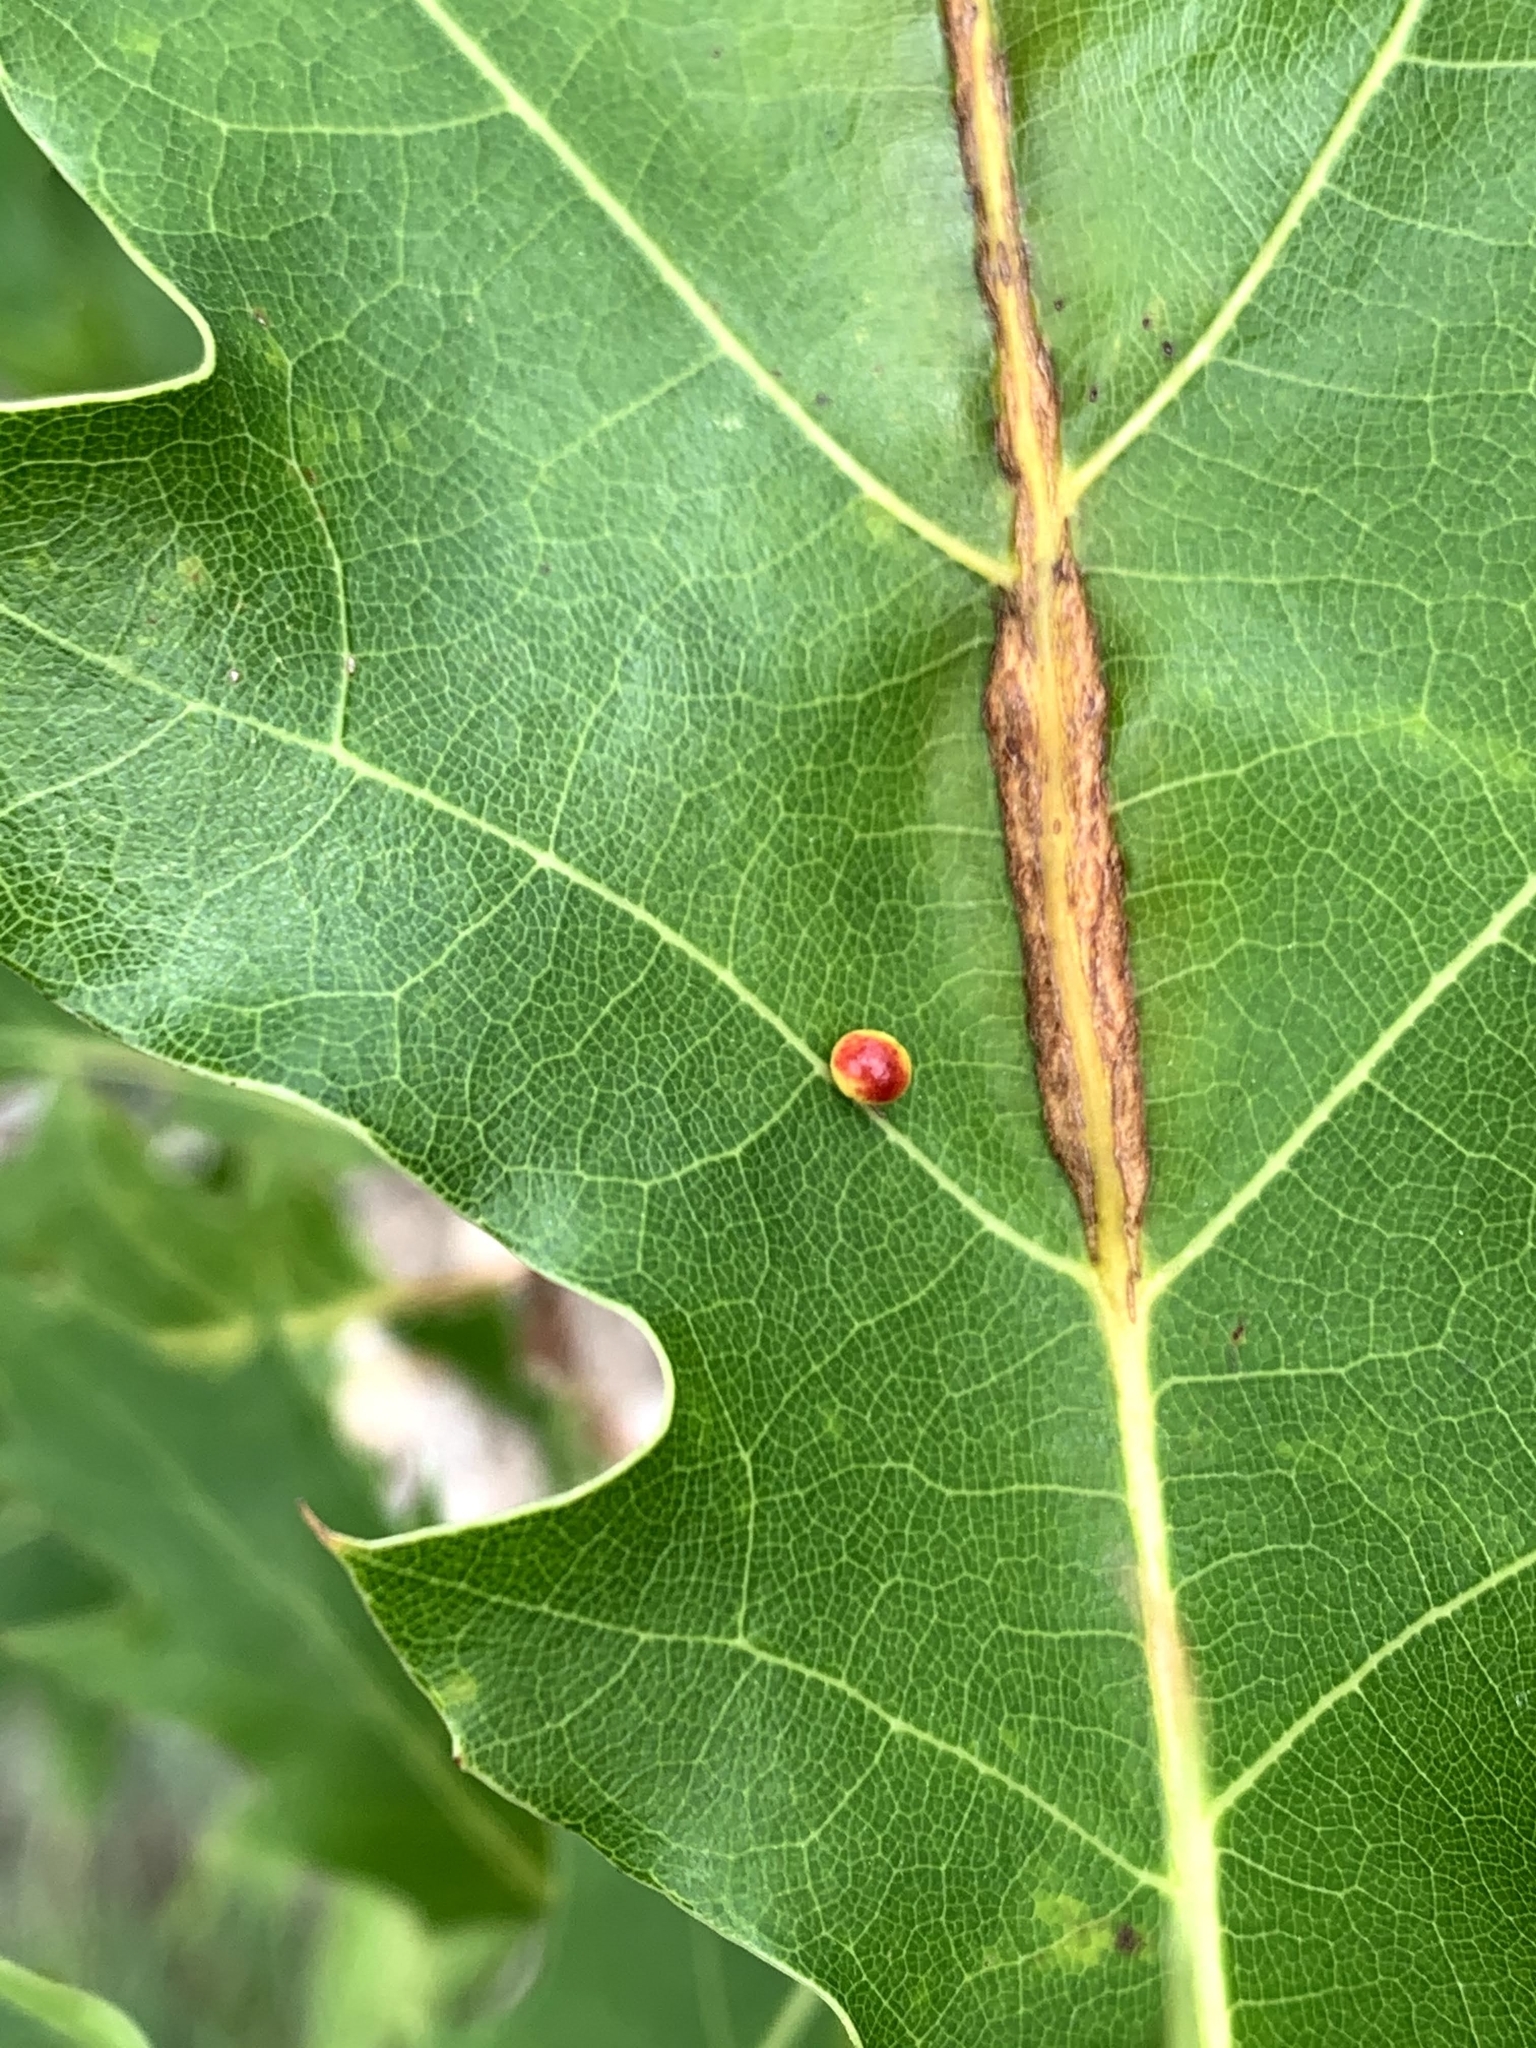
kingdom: Animalia
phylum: Arthropoda
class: Insecta
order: Hymenoptera
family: Cynipidae
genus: Zopheroteras
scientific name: Zopheroteras
